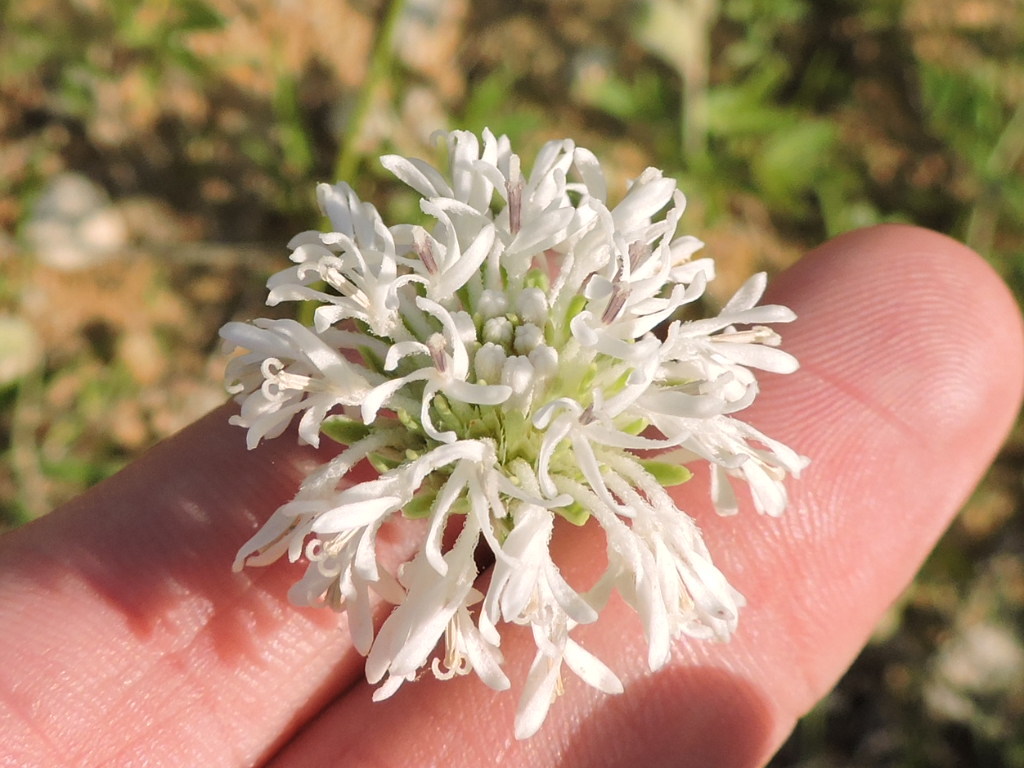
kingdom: Plantae
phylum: Tracheophyta
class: Magnoliopsida
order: Asterales
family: Asteraceae
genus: Marshallia
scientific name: Marshallia caespitosa
